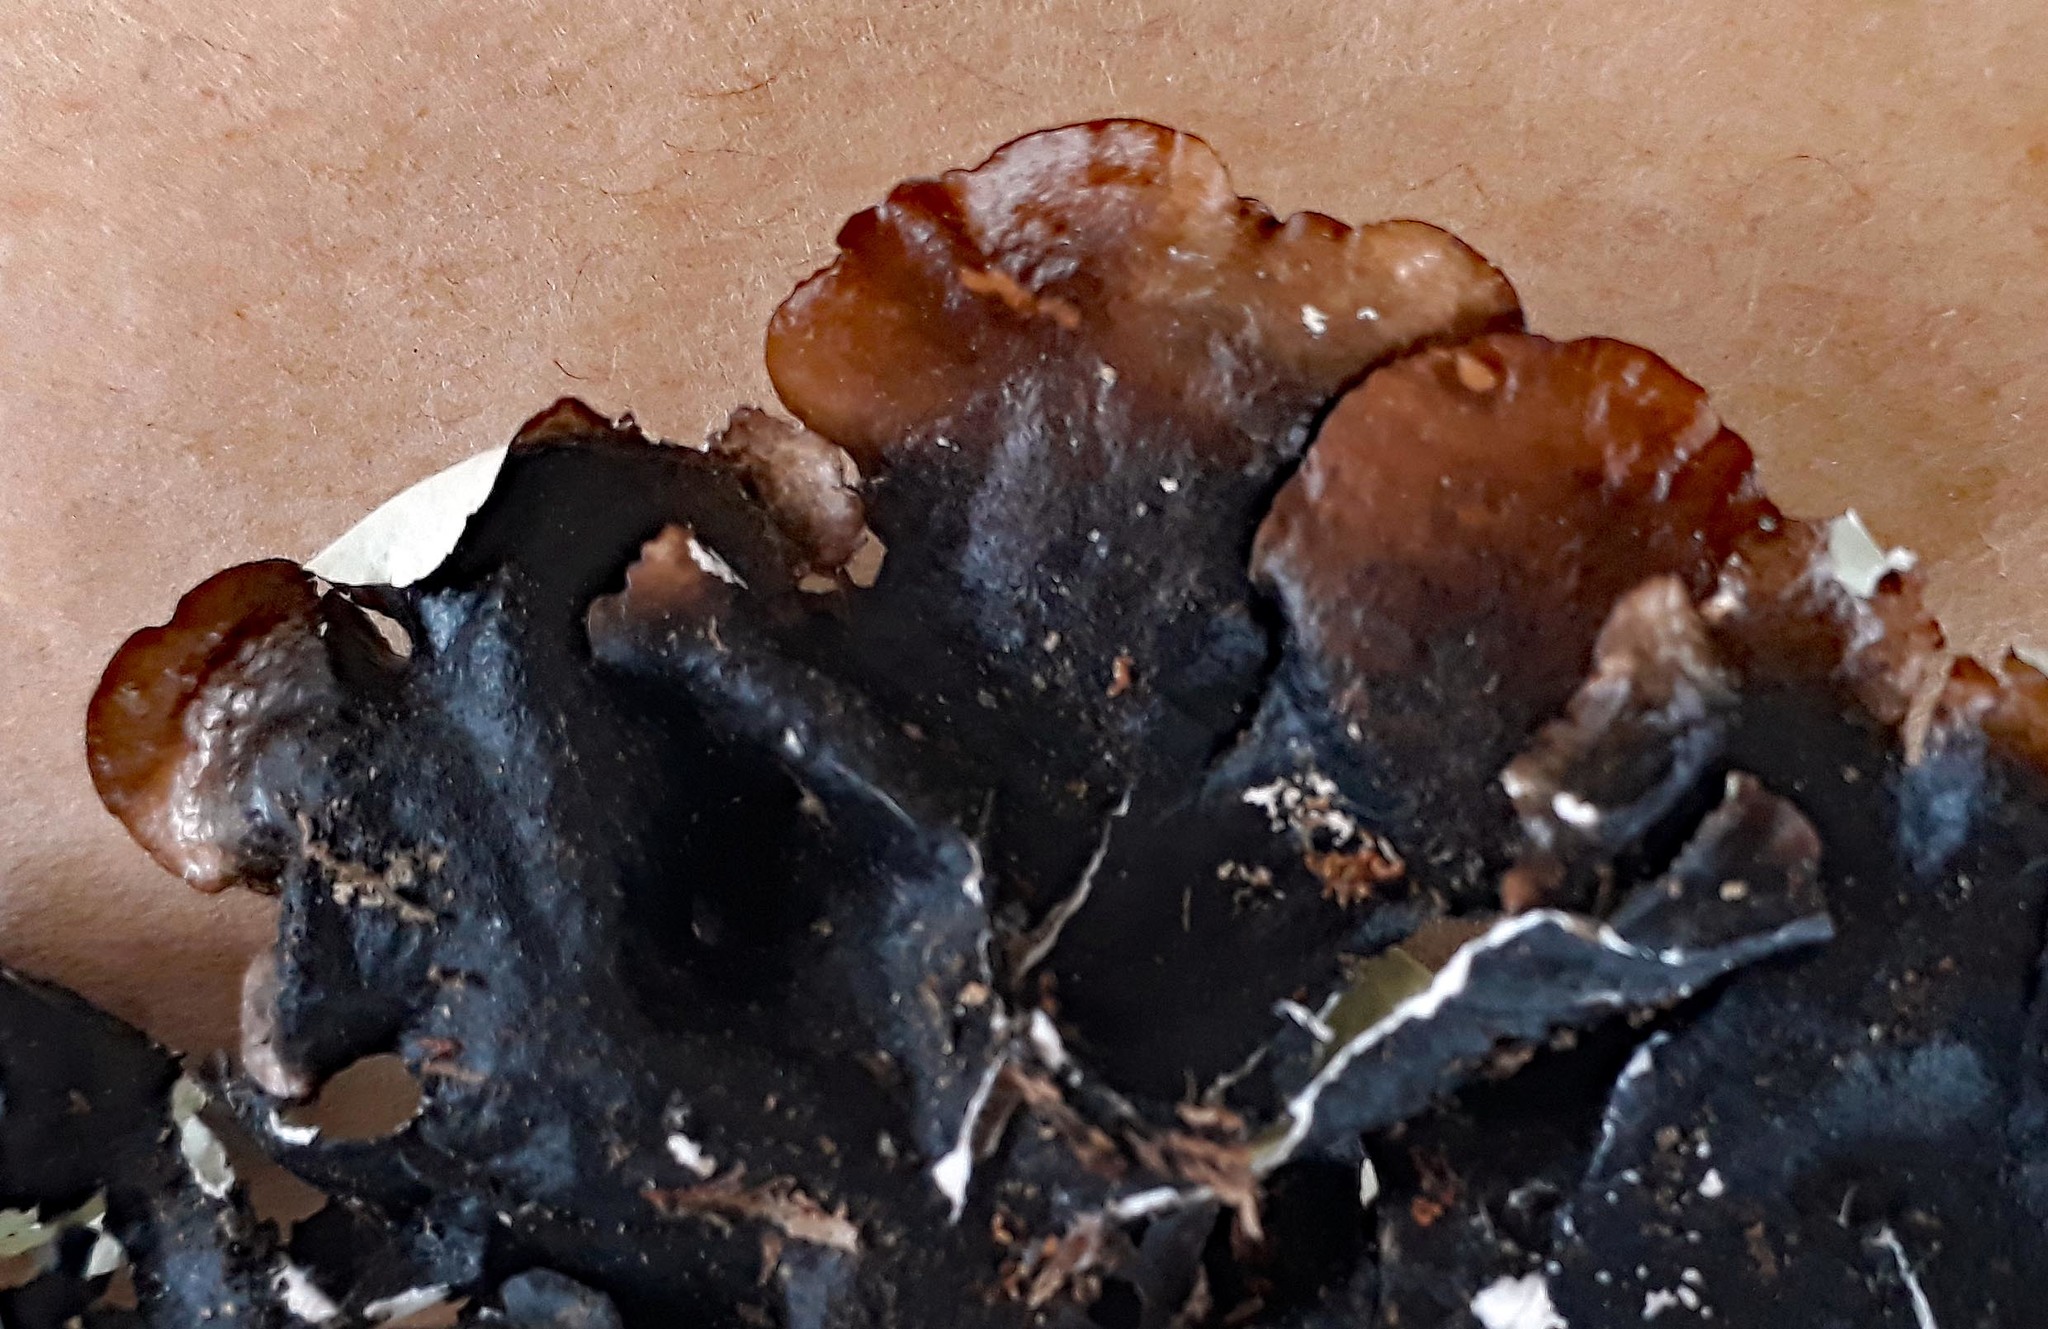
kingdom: Fungi
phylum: Ascomycota
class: Lecanoromycetes
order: Lecanorales
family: Parmeliaceae
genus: Parmotrema
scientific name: Parmotrema robustum
